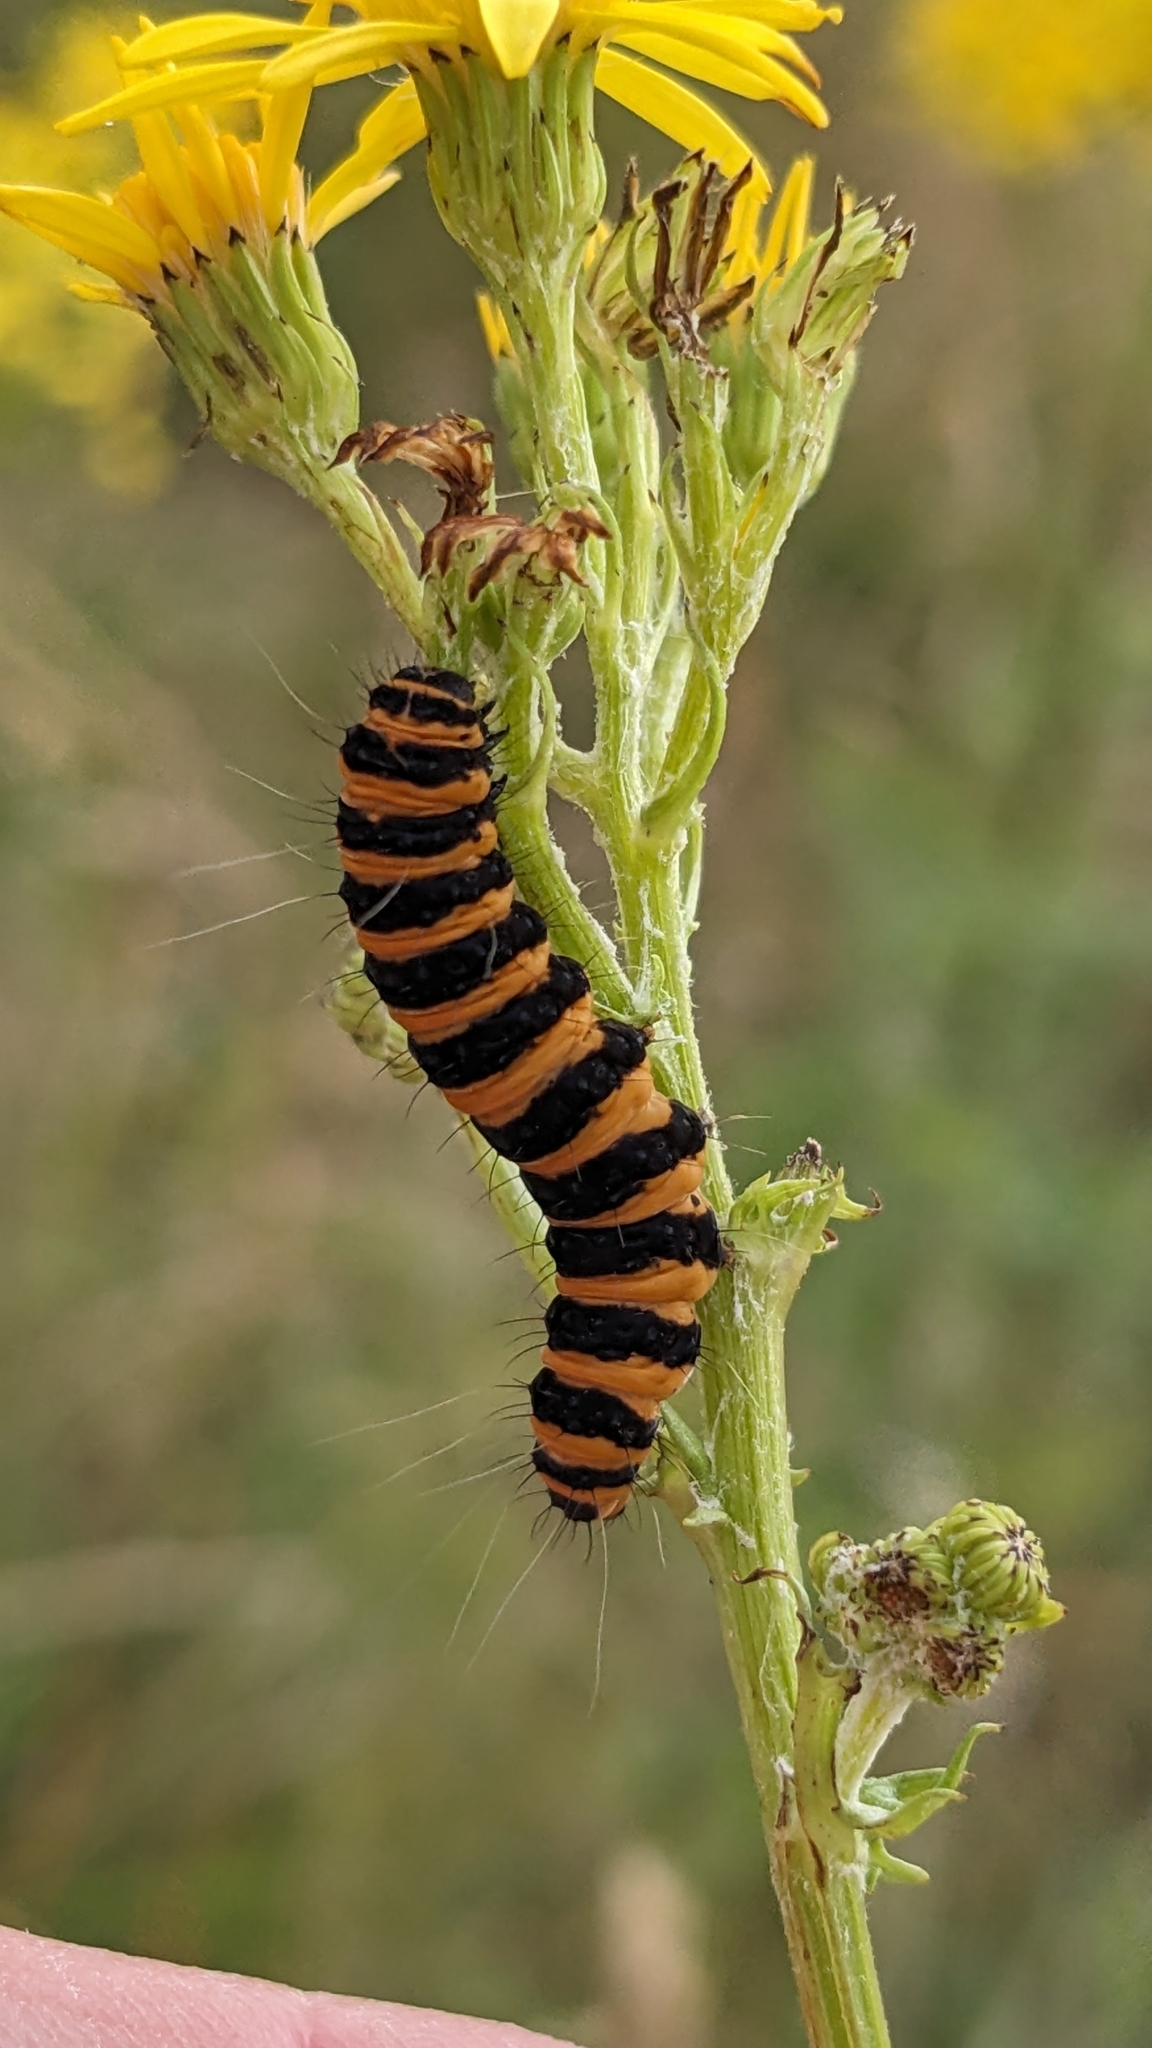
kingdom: Animalia
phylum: Arthropoda
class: Insecta
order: Lepidoptera
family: Erebidae
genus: Tyria
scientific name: Tyria jacobaeae
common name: Cinnabar
